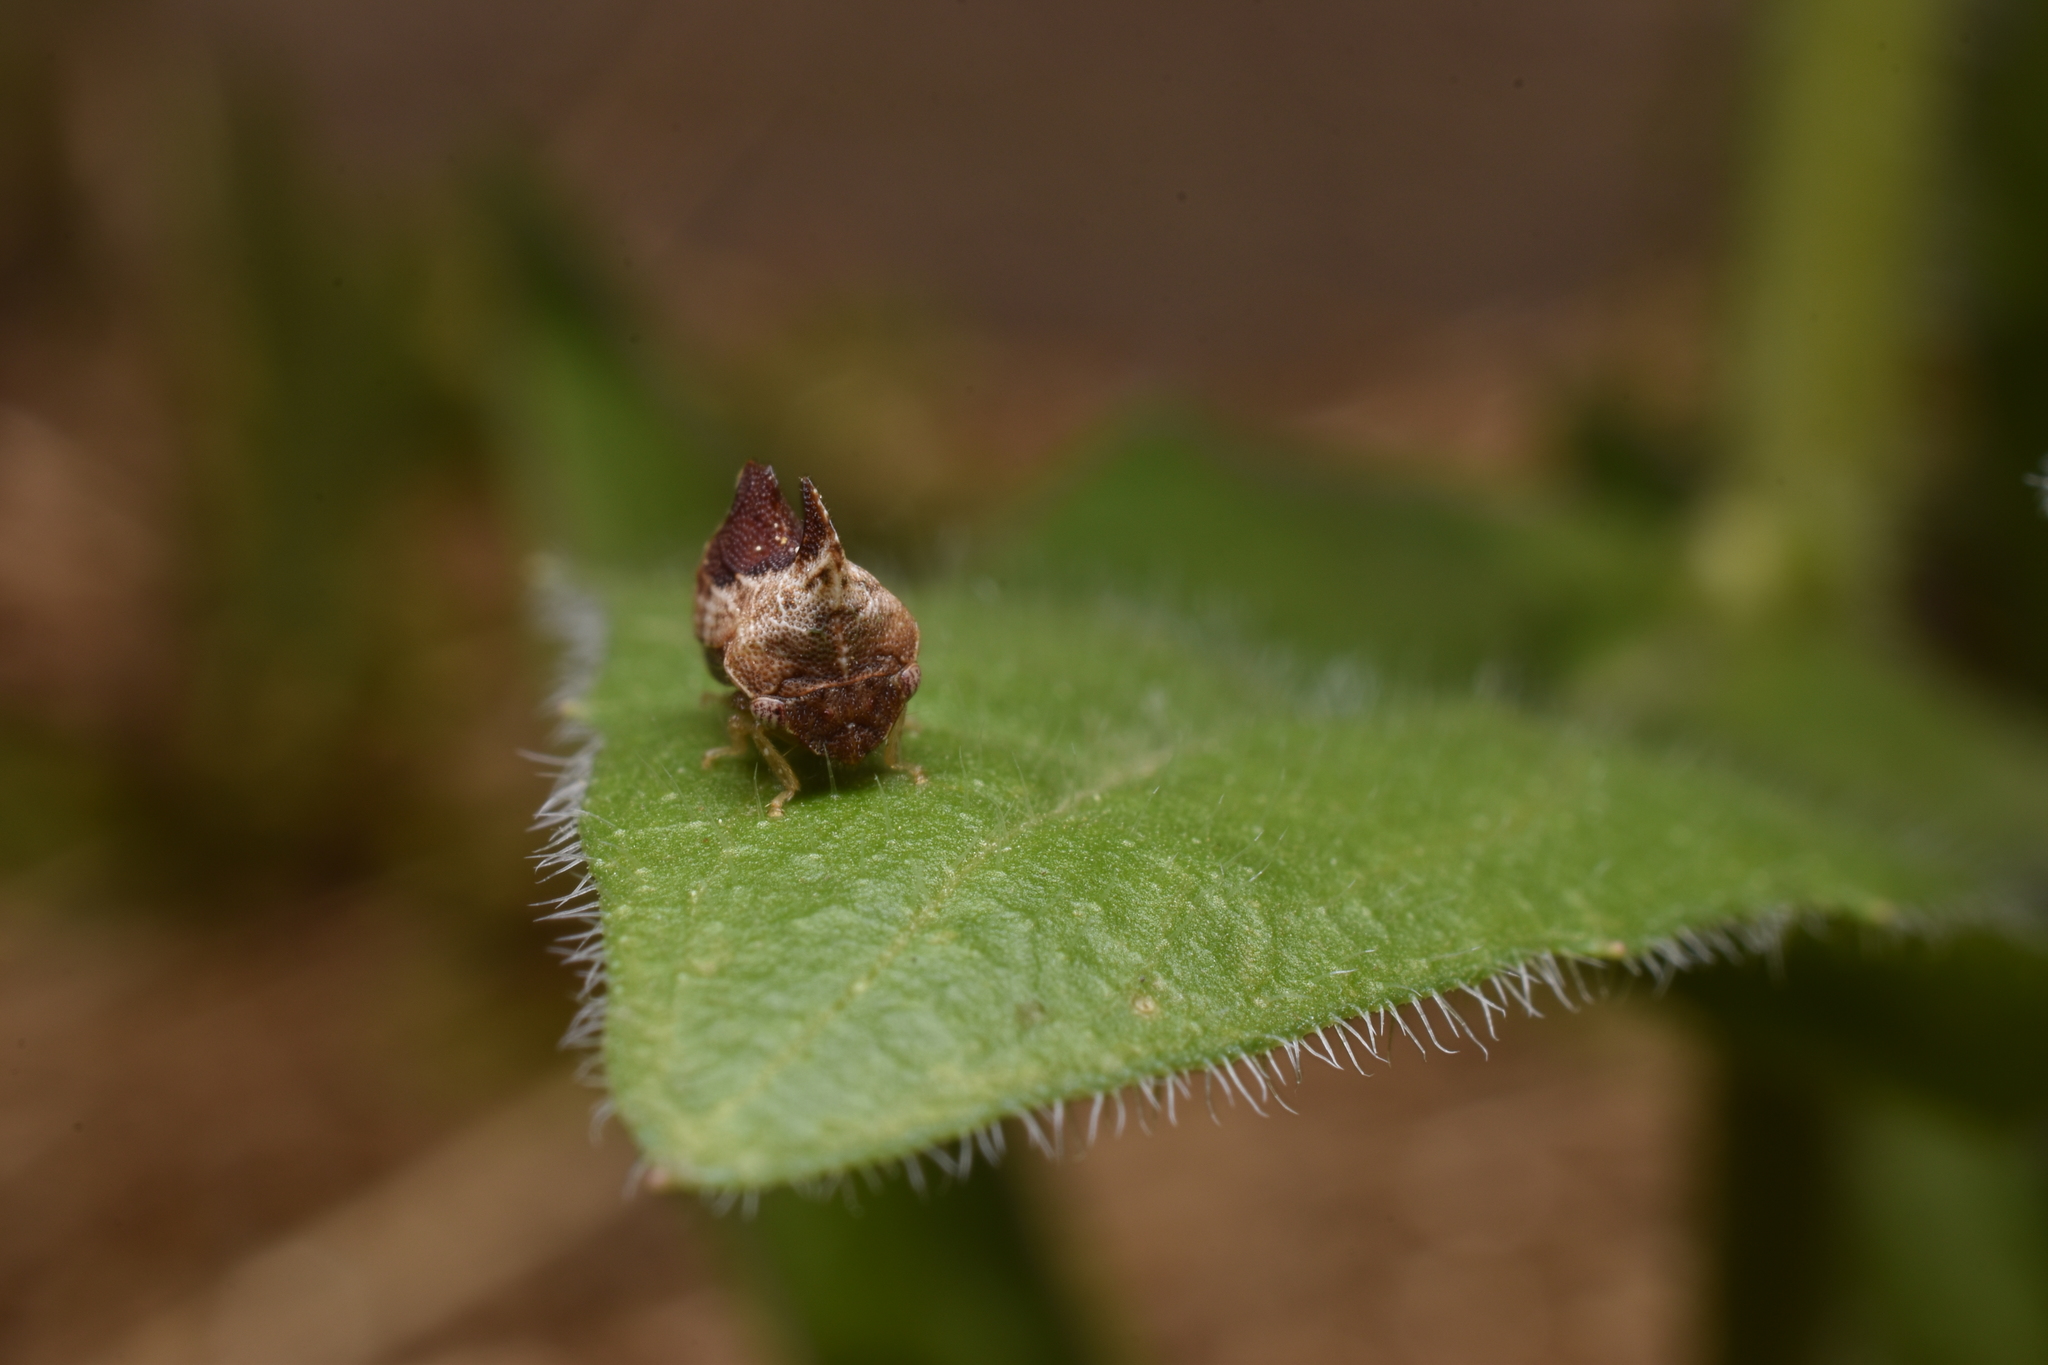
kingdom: Animalia
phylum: Arthropoda
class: Insecta
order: Hemiptera
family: Membracidae
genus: Entylia
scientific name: Entylia carinata
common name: Keeled treehopper
